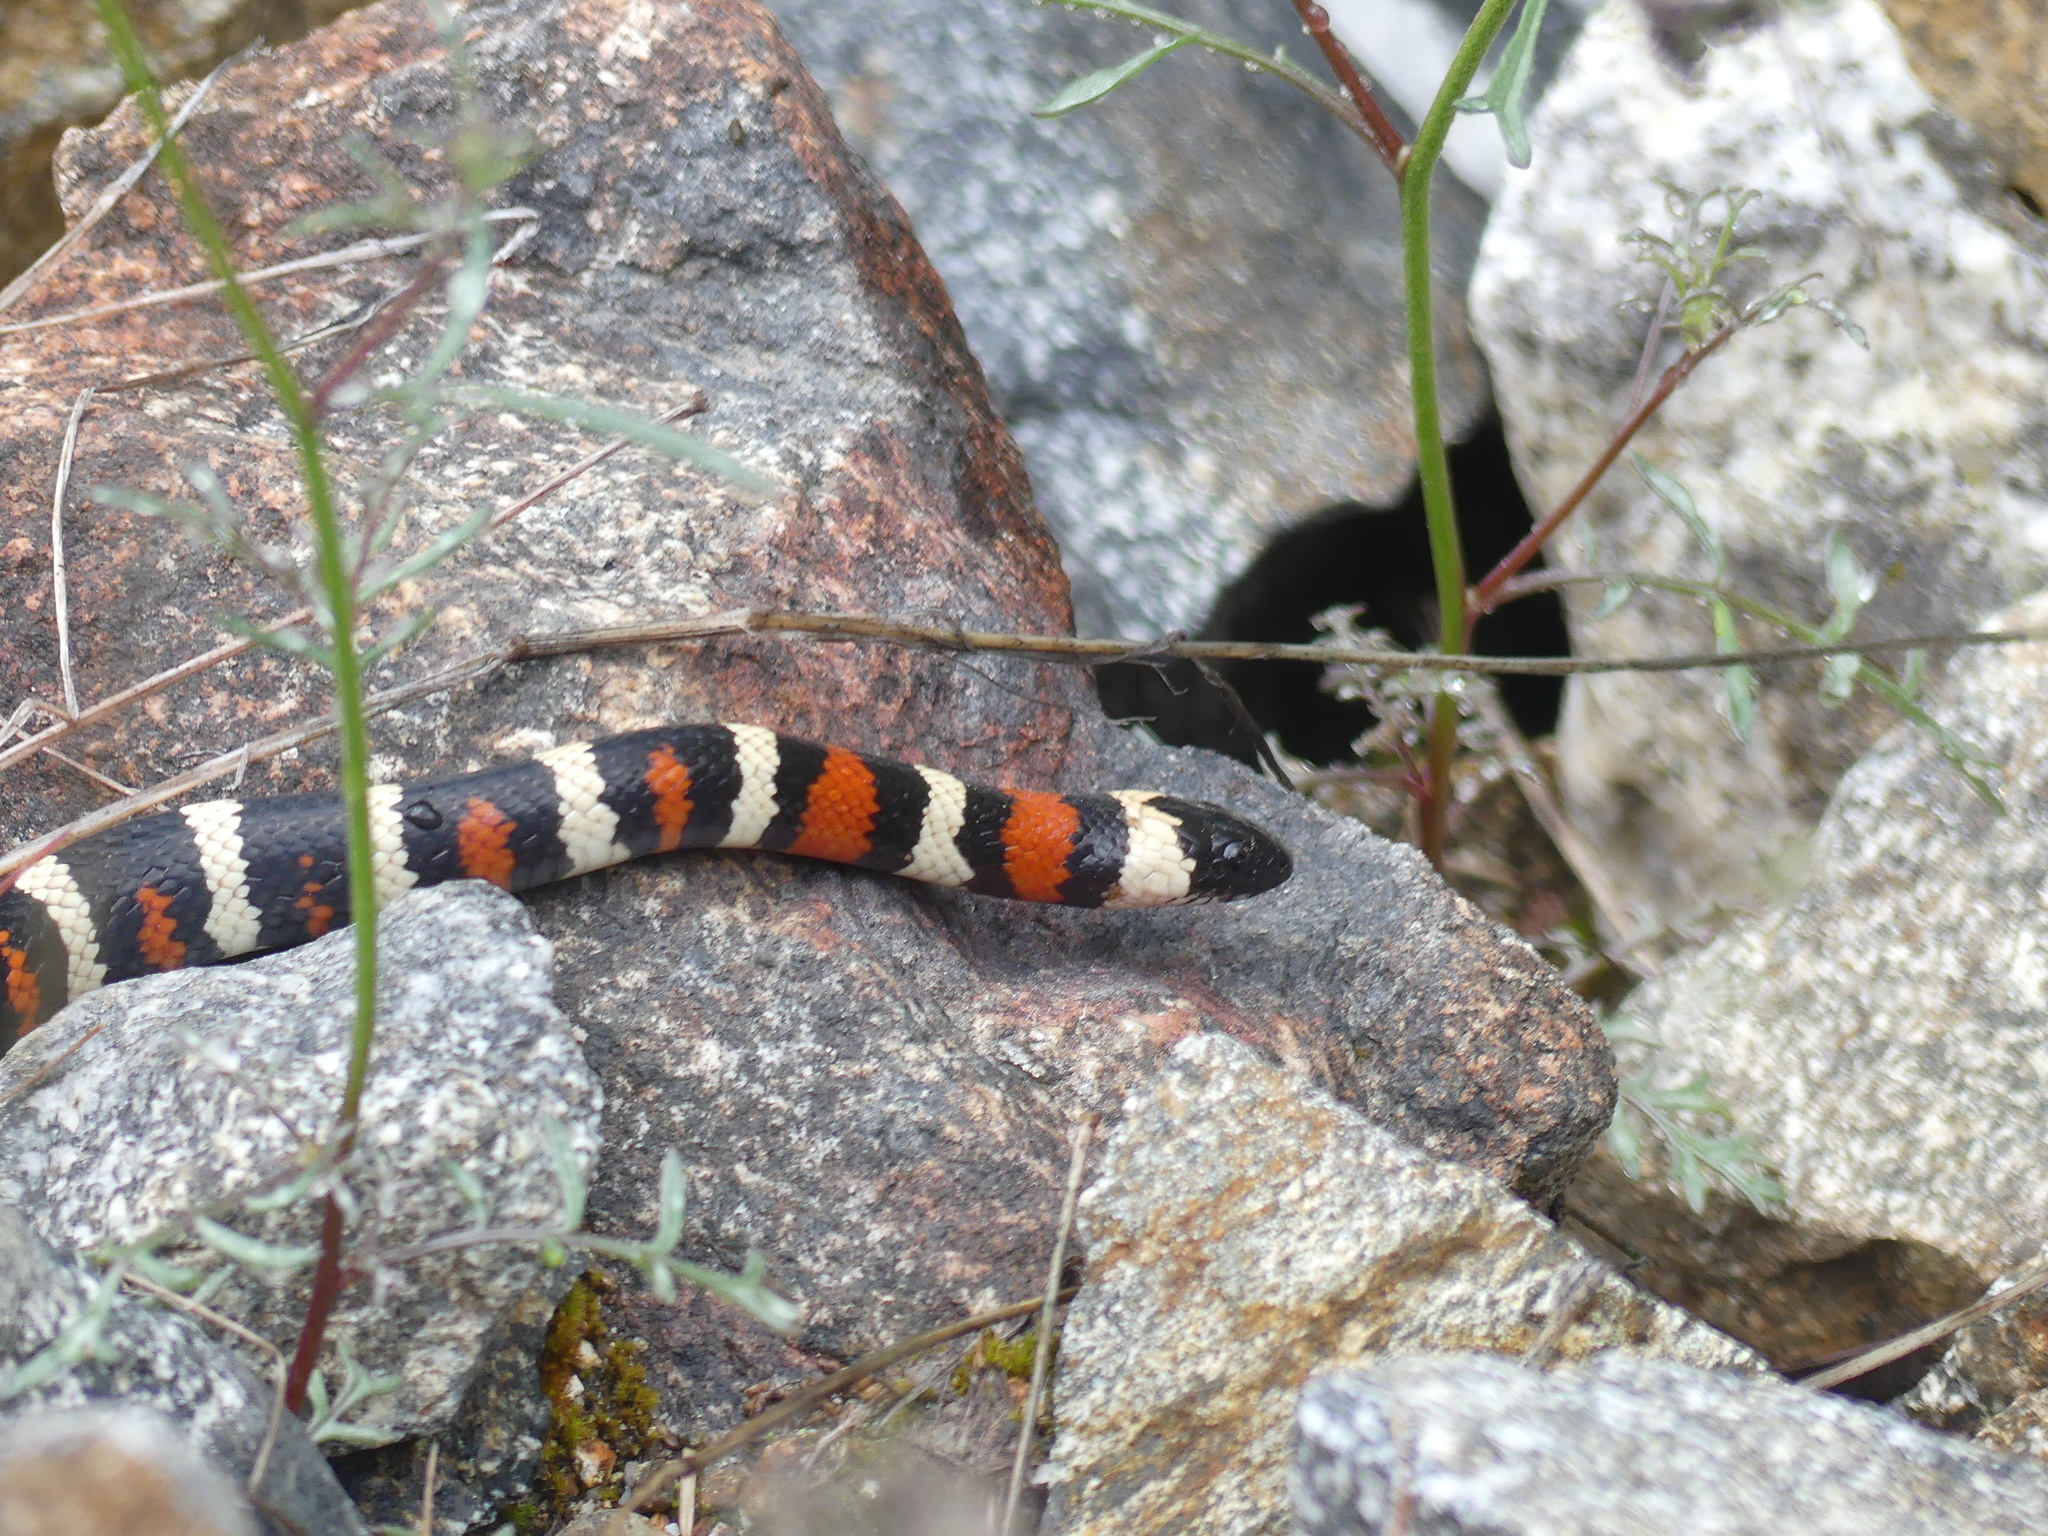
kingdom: Animalia
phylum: Chordata
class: Squamata
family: Colubridae
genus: Lampropeltis
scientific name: Lampropeltis zonata
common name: California mountain kingsnake
